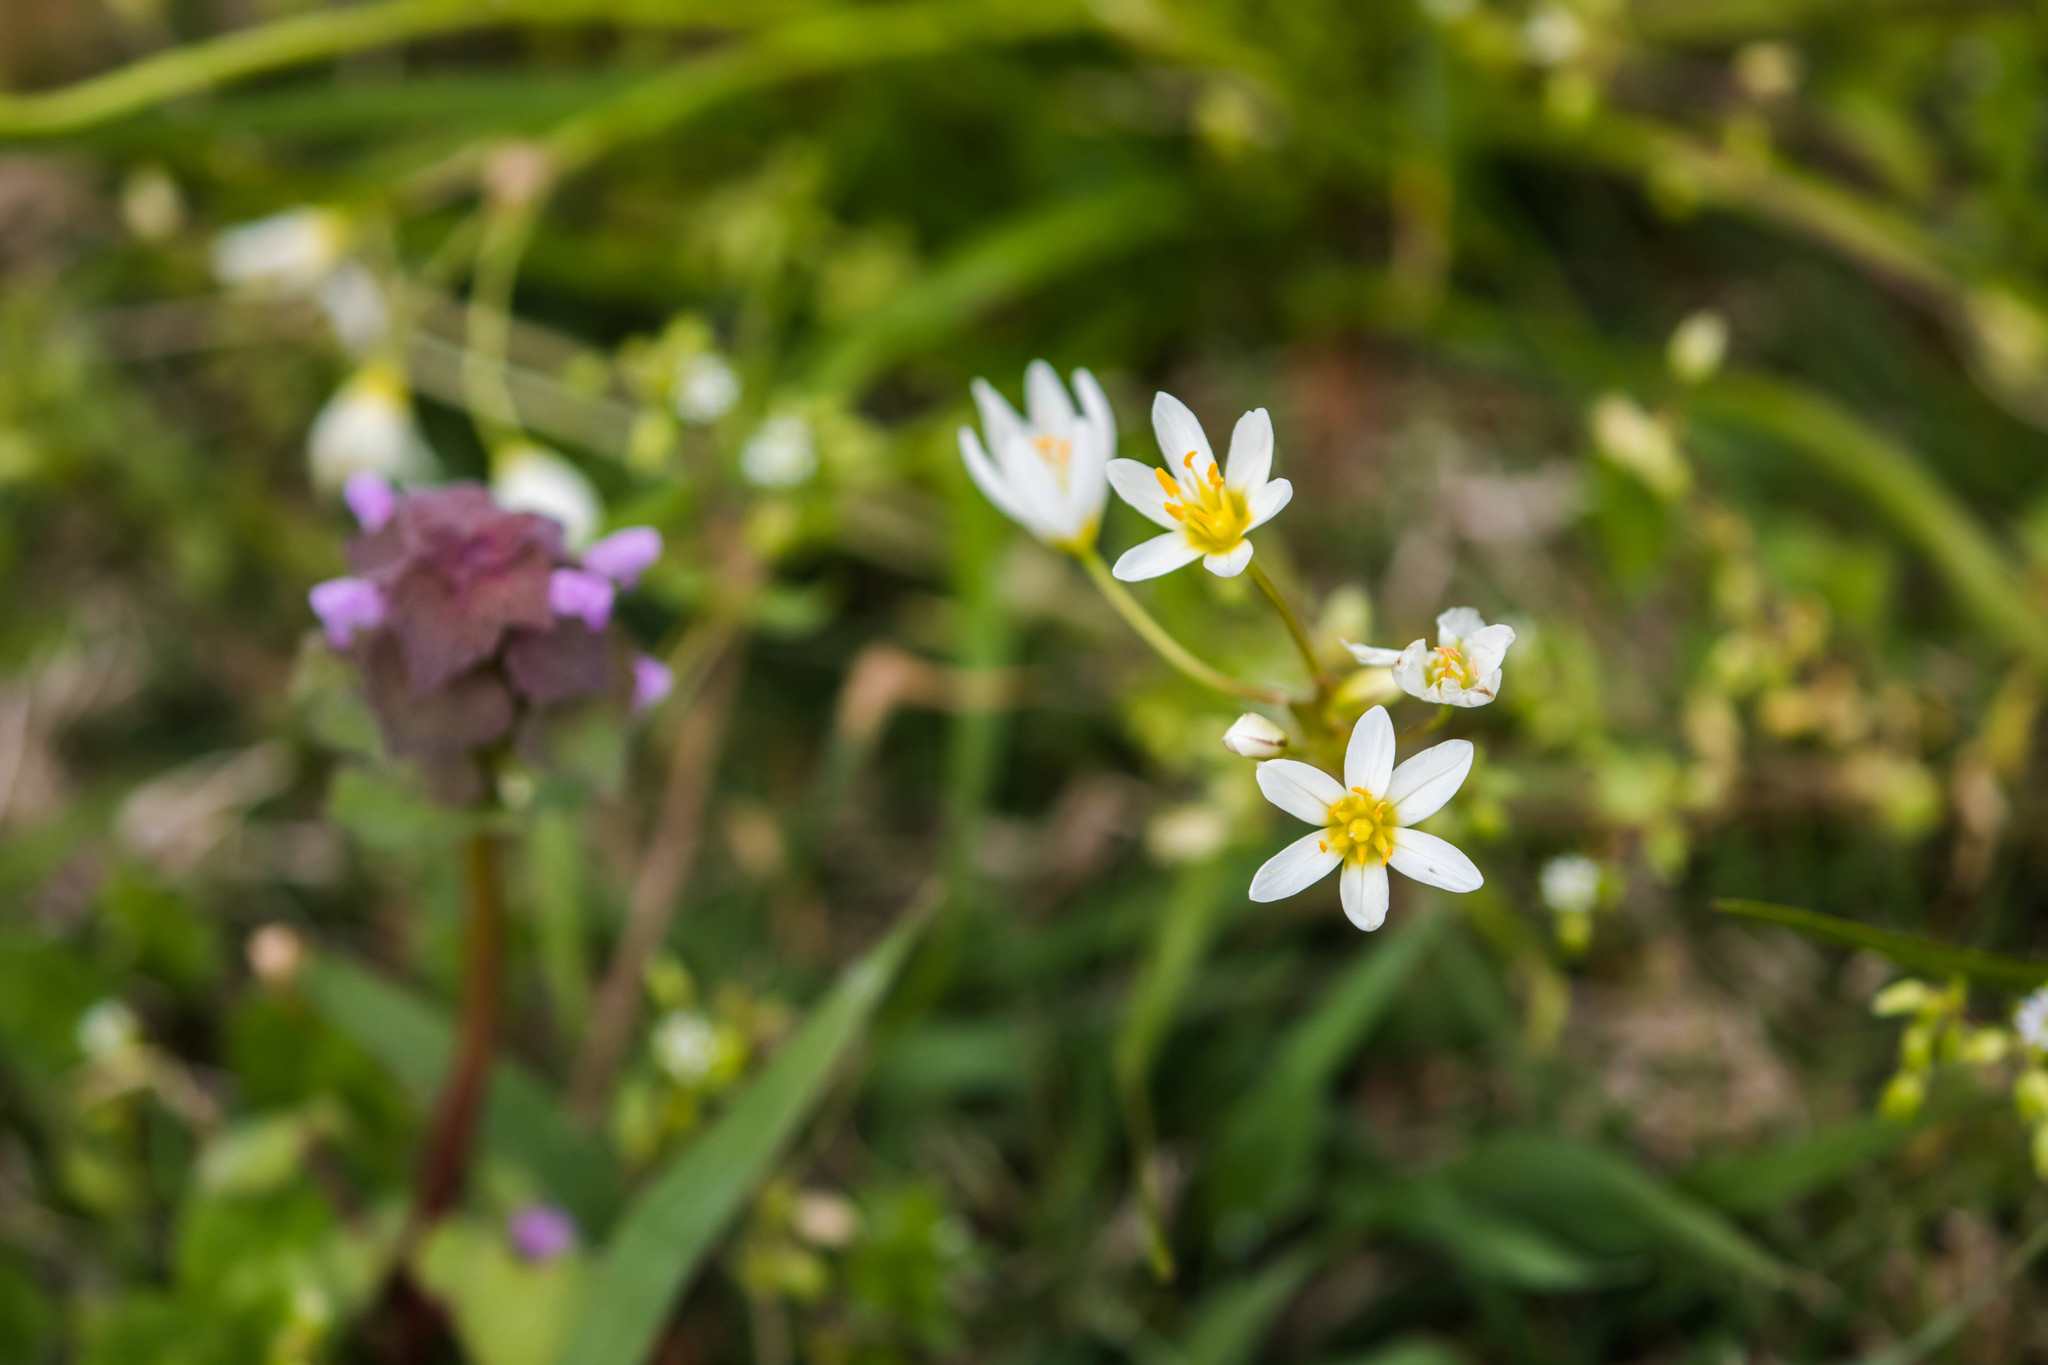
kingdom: Plantae
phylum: Tracheophyta
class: Liliopsida
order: Asparagales
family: Amaryllidaceae
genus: Nothoscordum
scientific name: Nothoscordum bivalve
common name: Crow-poison
